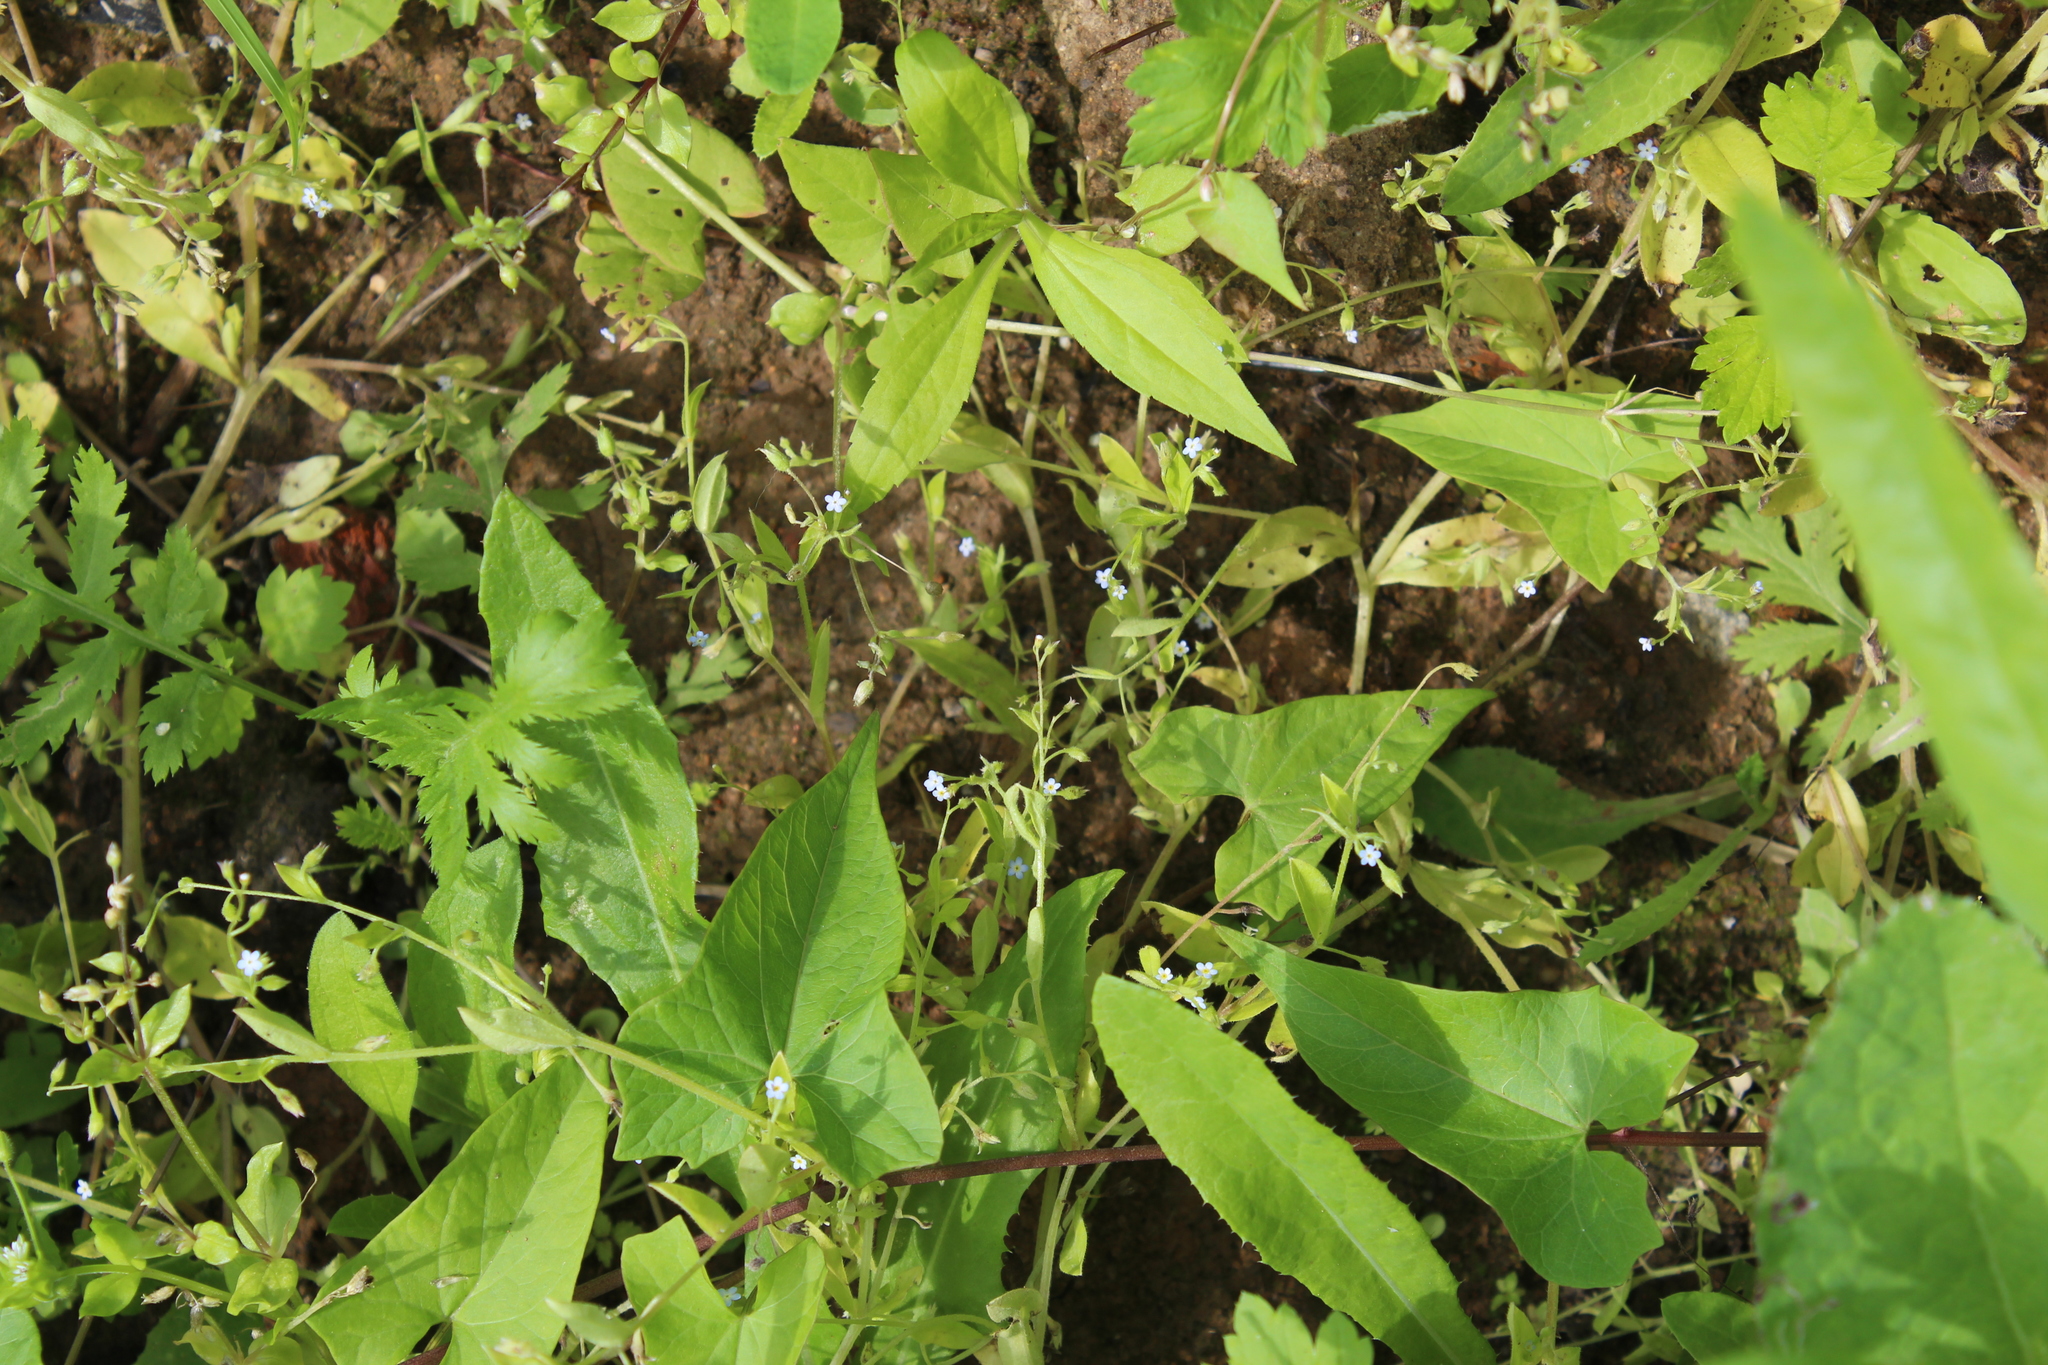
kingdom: Plantae
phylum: Tracheophyta
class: Magnoliopsida
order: Boraginales
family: Boraginaceae
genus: Myosotis
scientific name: Myosotis sparsiflora
